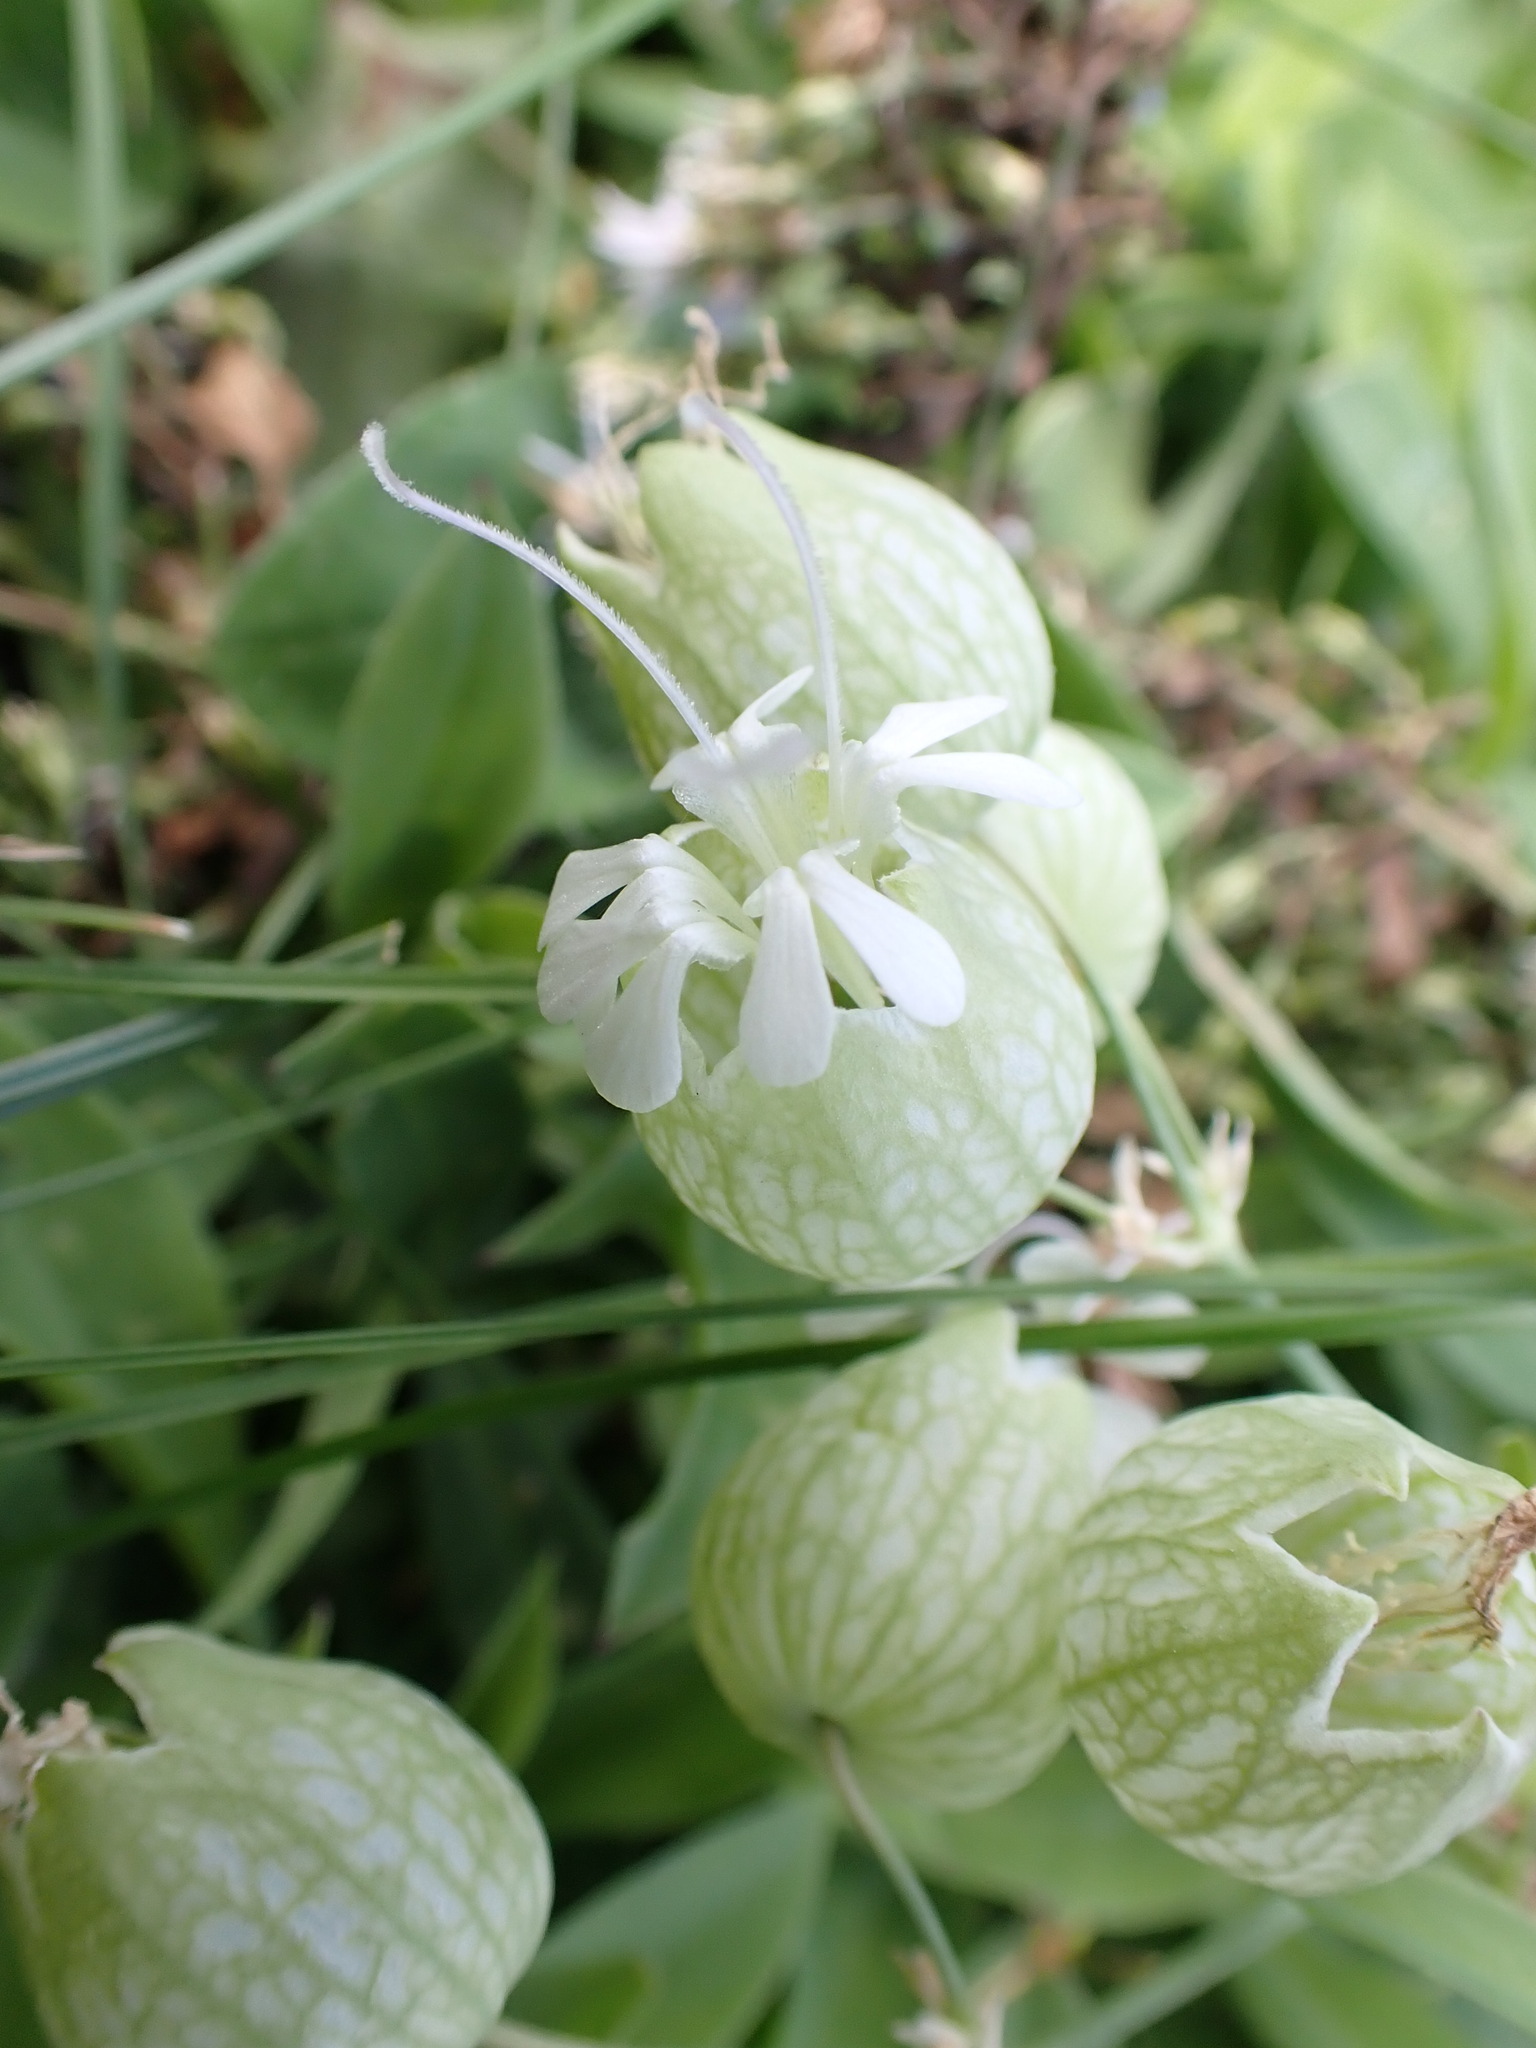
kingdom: Plantae
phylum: Tracheophyta
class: Magnoliopsida
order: Caryophyllales
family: Caryophyllaceae
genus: Silene
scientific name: Silene vulgaris
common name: Bladder campion
